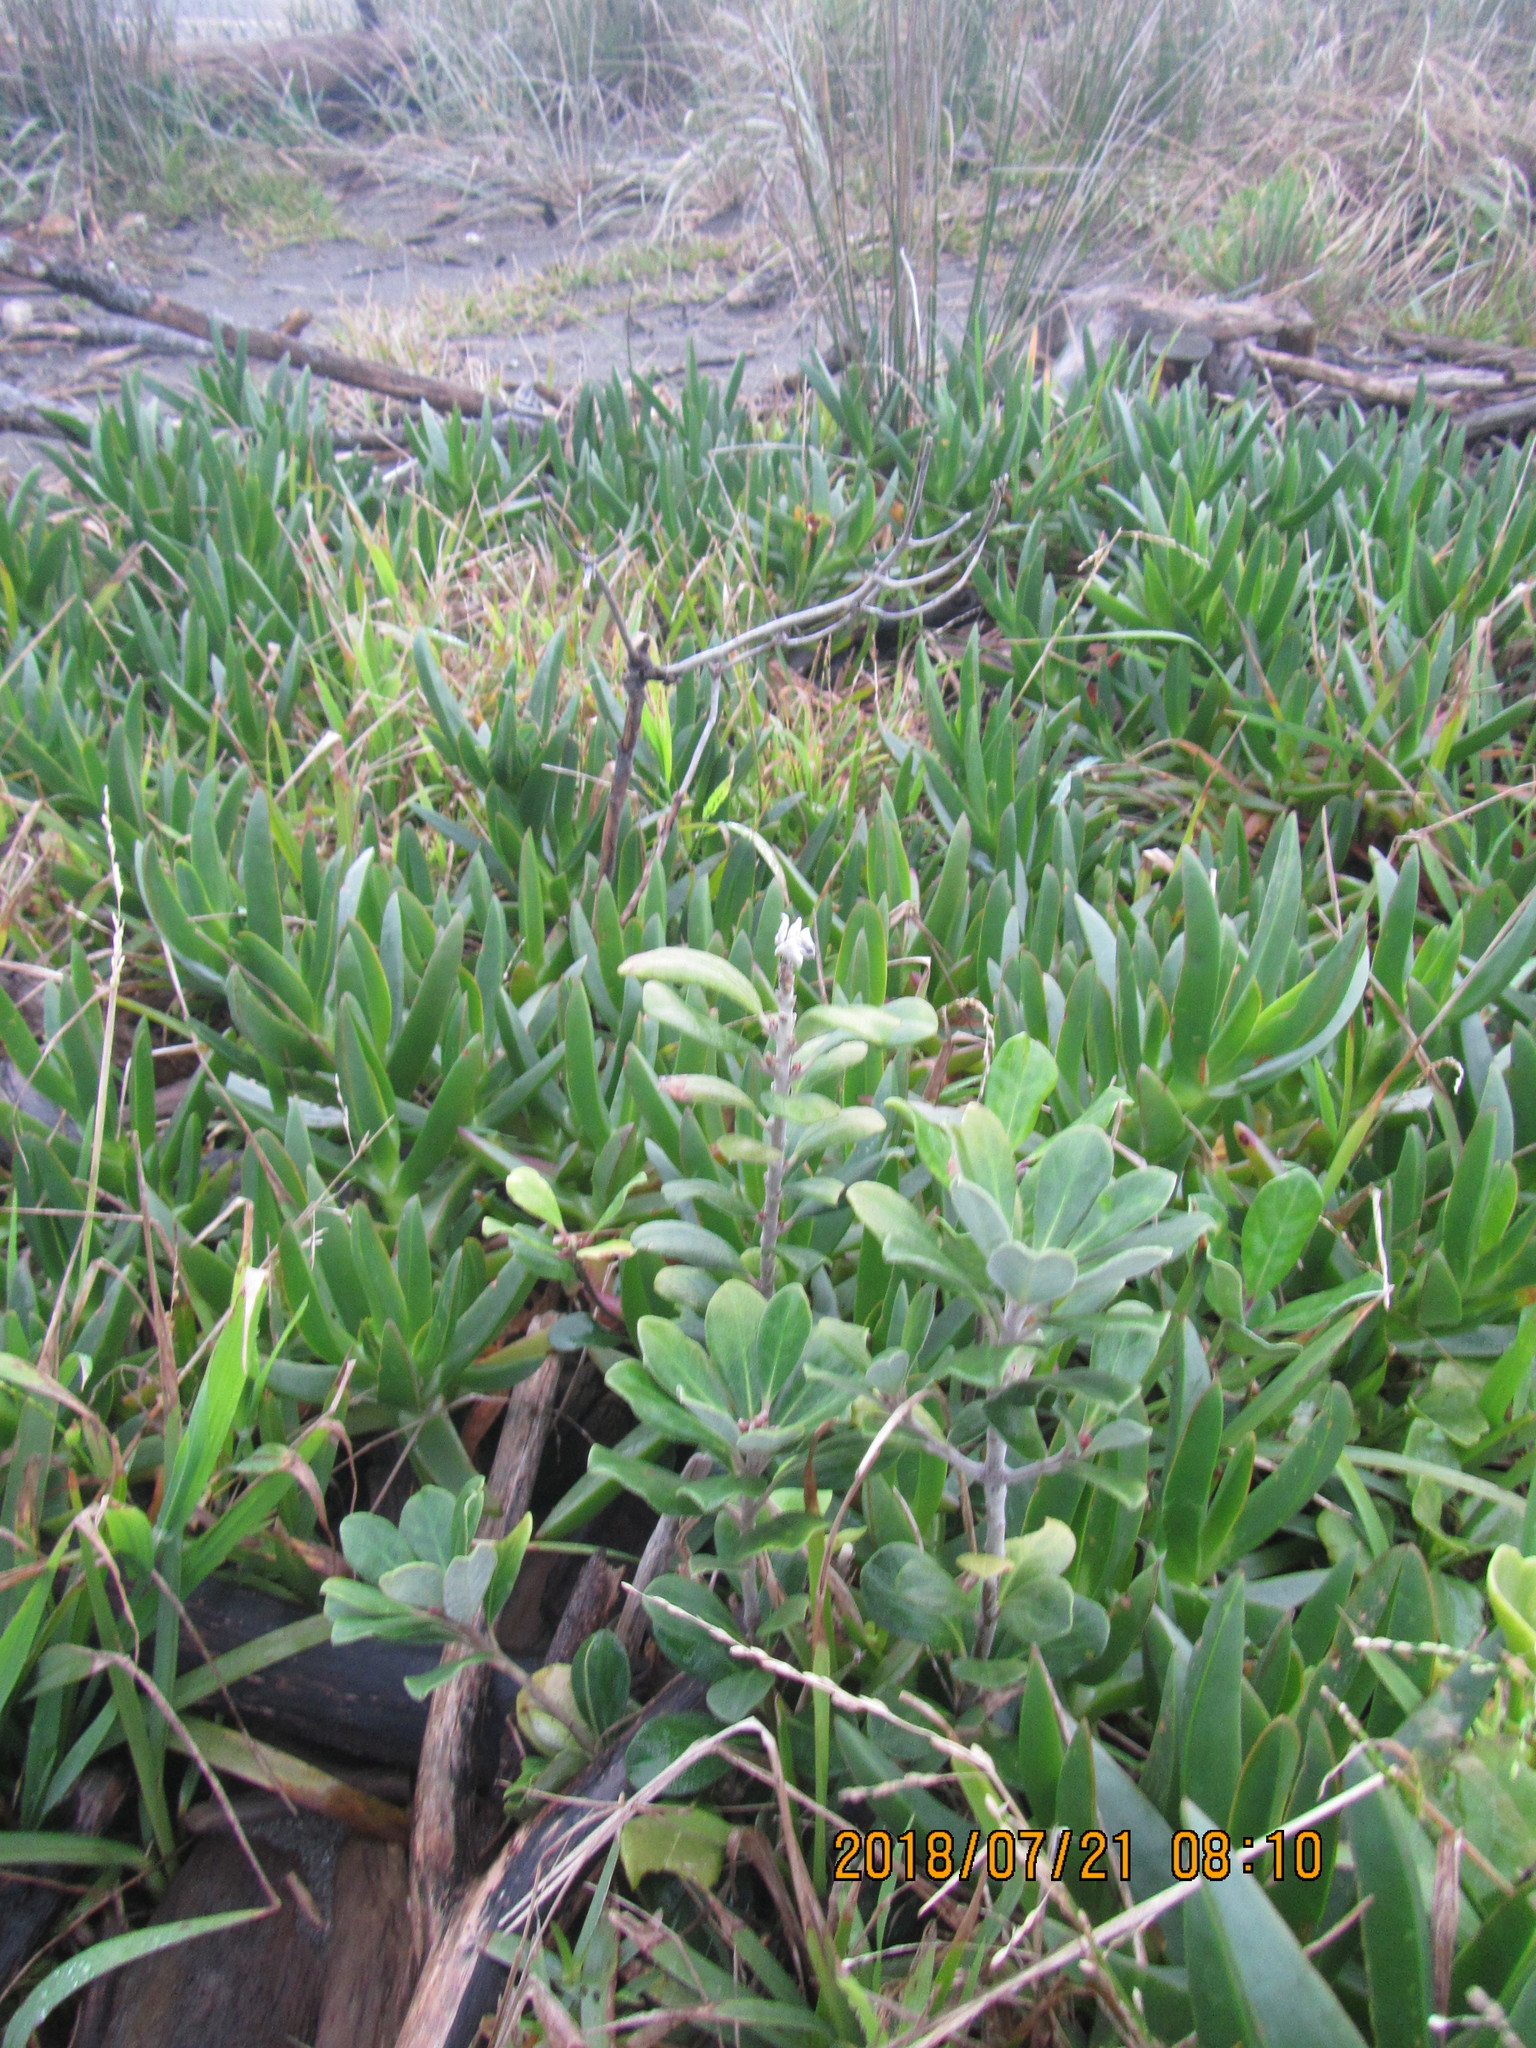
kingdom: Plantae
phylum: Tracheophyta
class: Magnoliopsida
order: Apiales
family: Pittosporaceae
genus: Pittosporum
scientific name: Pittosporum crassifolium
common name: Karo
